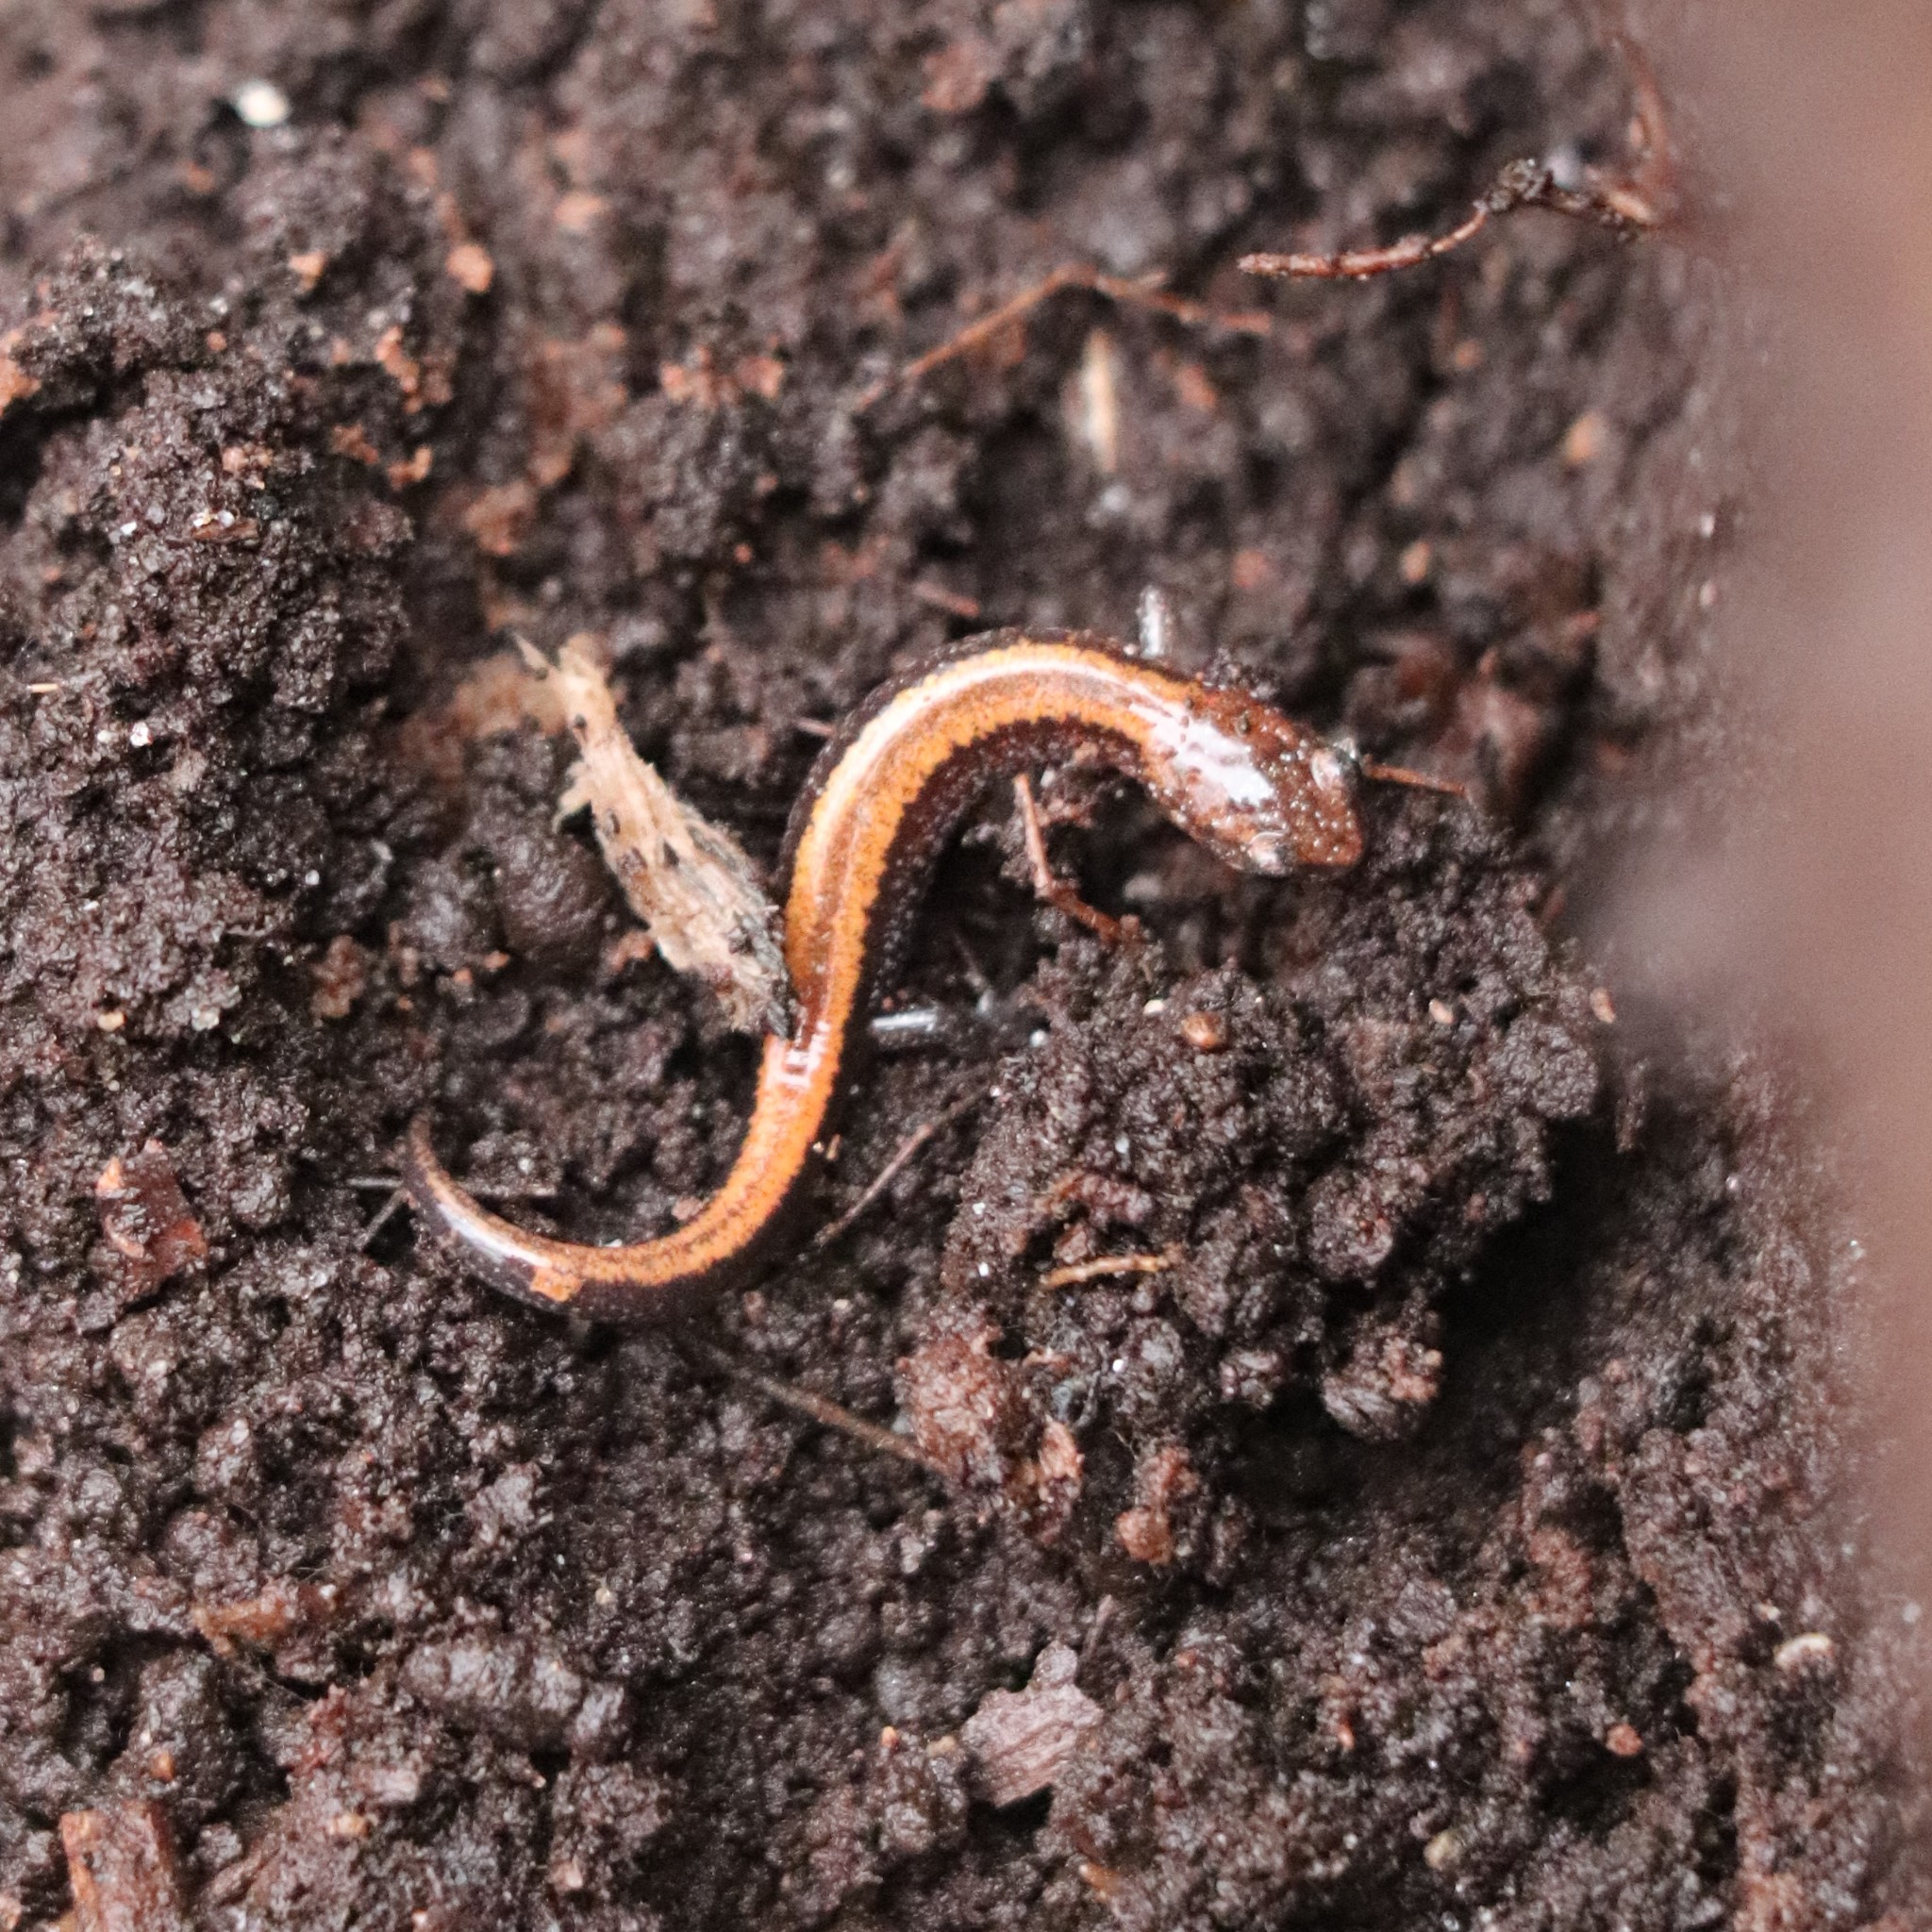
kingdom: Animalia
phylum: Chordata
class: Amphibia
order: Caudata
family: Plethodontidae
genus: Plethodon
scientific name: Plethodon cinereus
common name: Redback salamander
